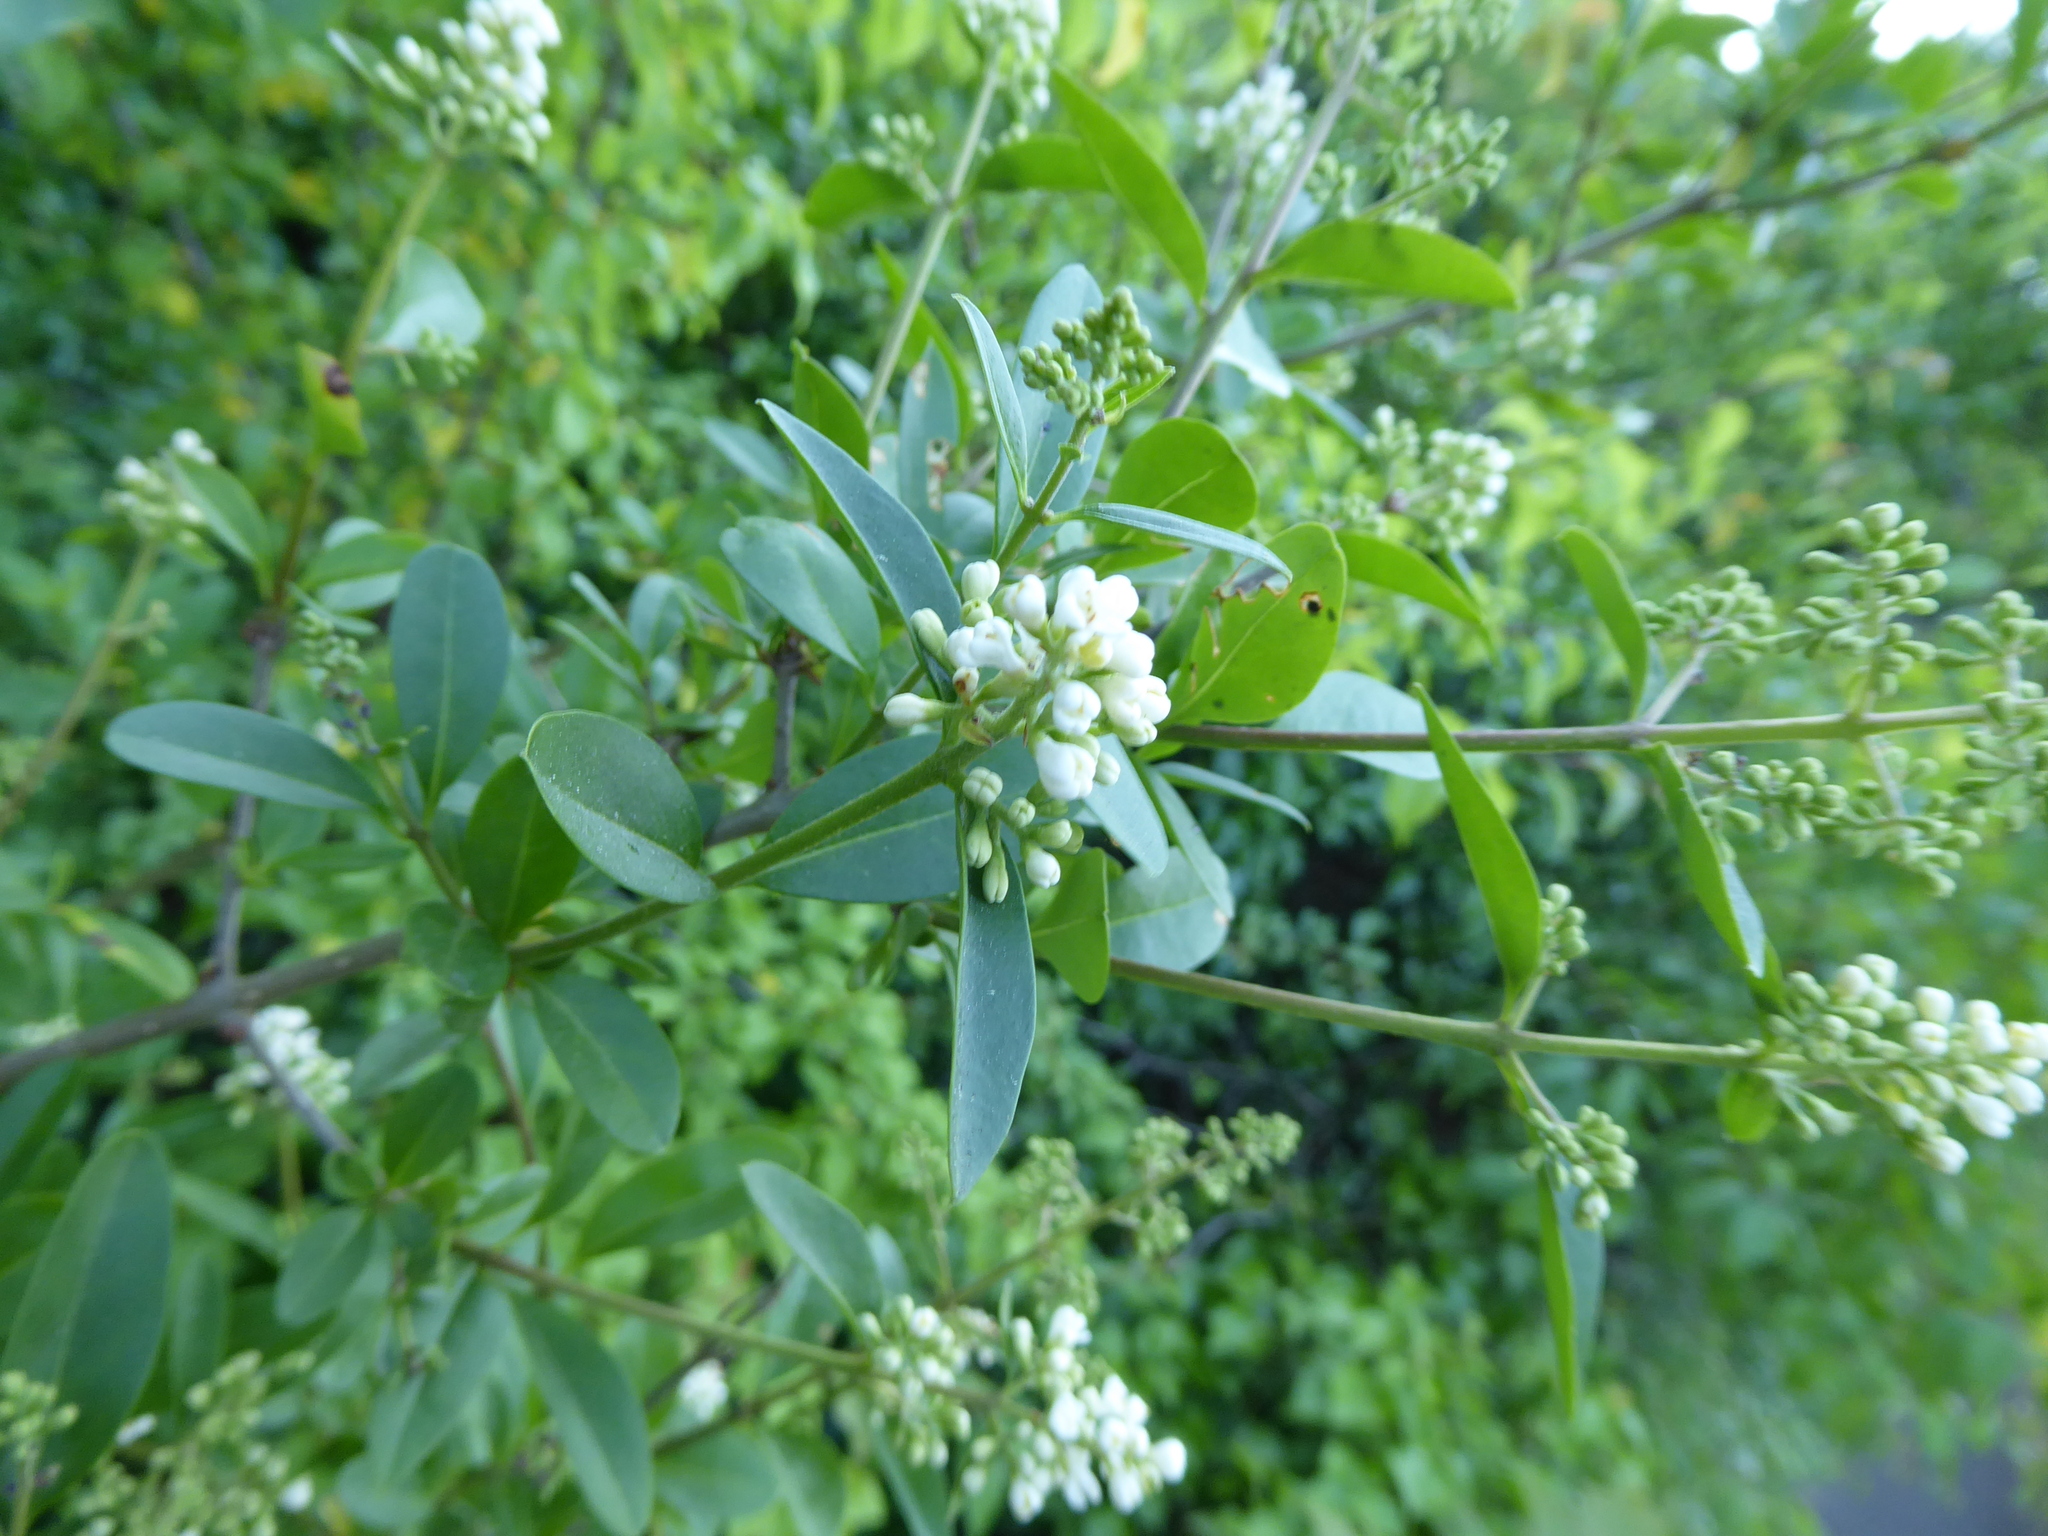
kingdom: Plantae
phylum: Tracheophyta
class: Magnoliopsida
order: Lamiales
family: Oleaceae
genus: Ligustrum
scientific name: Ligustrum vulgare
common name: Wild privet
